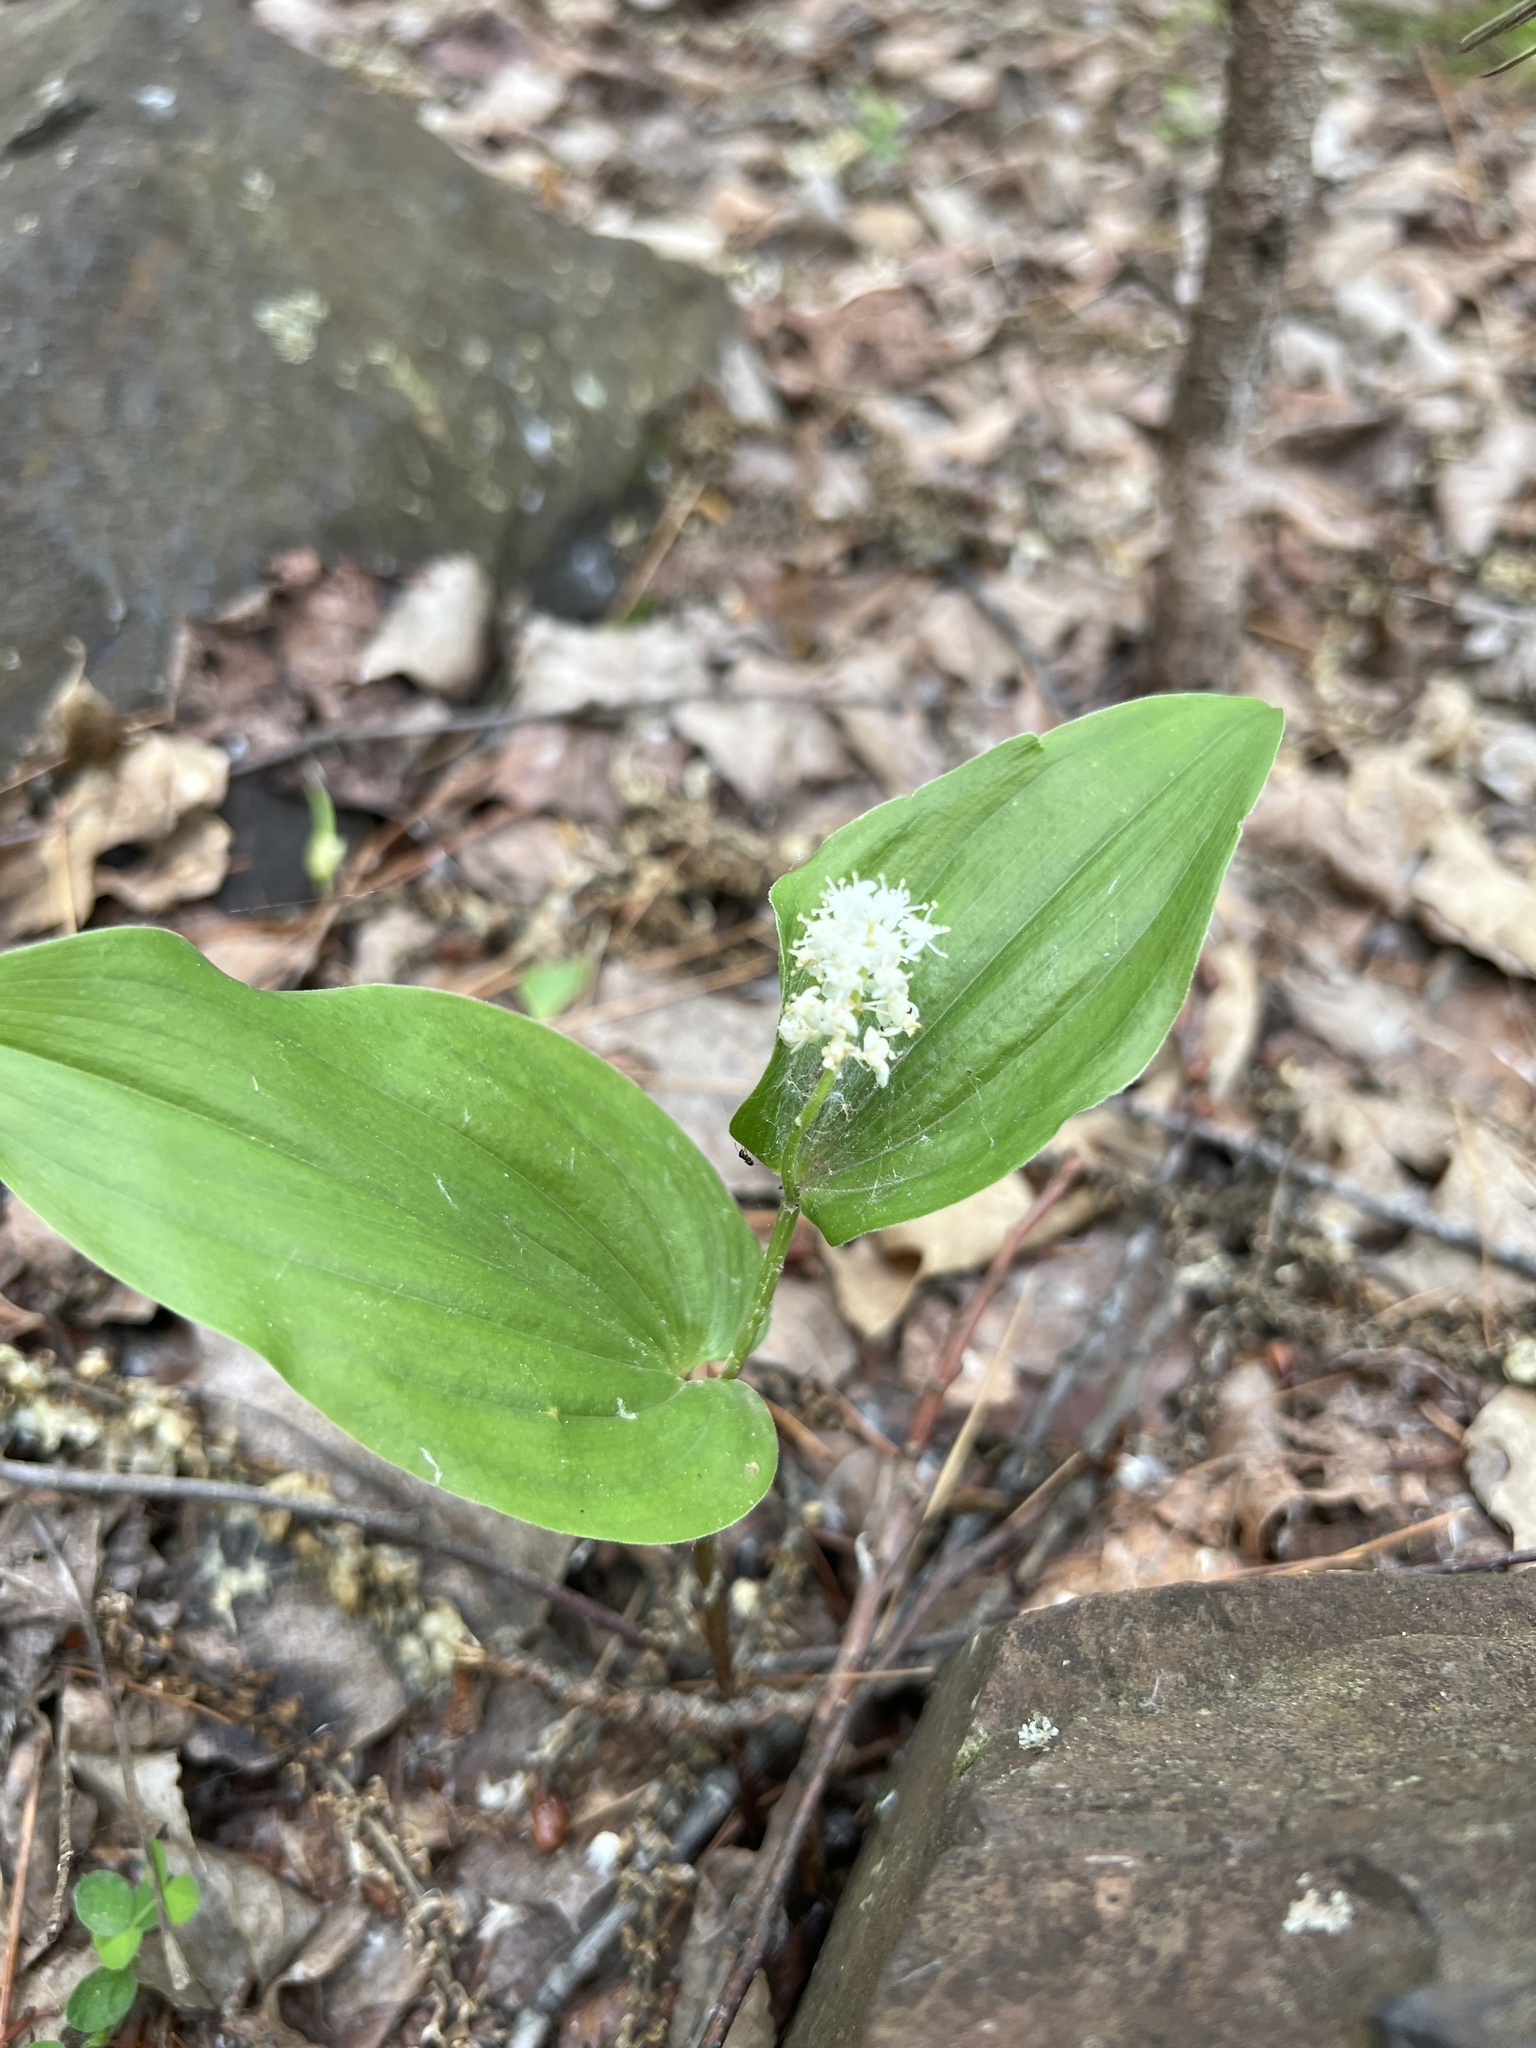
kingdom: Plantae
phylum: Tracheophyta
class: Liliopsida
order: Asparagales
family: Asparagaceae
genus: Maianthemum
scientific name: Maianthemum canadense
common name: False lily-of-the-valley
